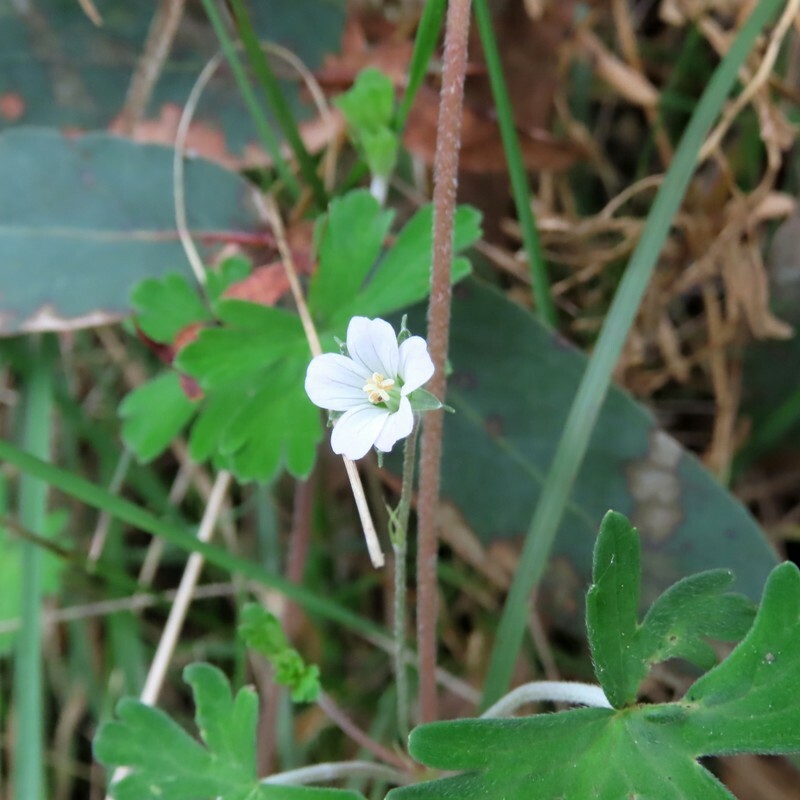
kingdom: Plantae
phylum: Tracheophyta
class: Magnoliopsida
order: Geraniales
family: Geraniaceae
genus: Geranium
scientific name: Geranium potentilloides
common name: Cinquefoil geranium
